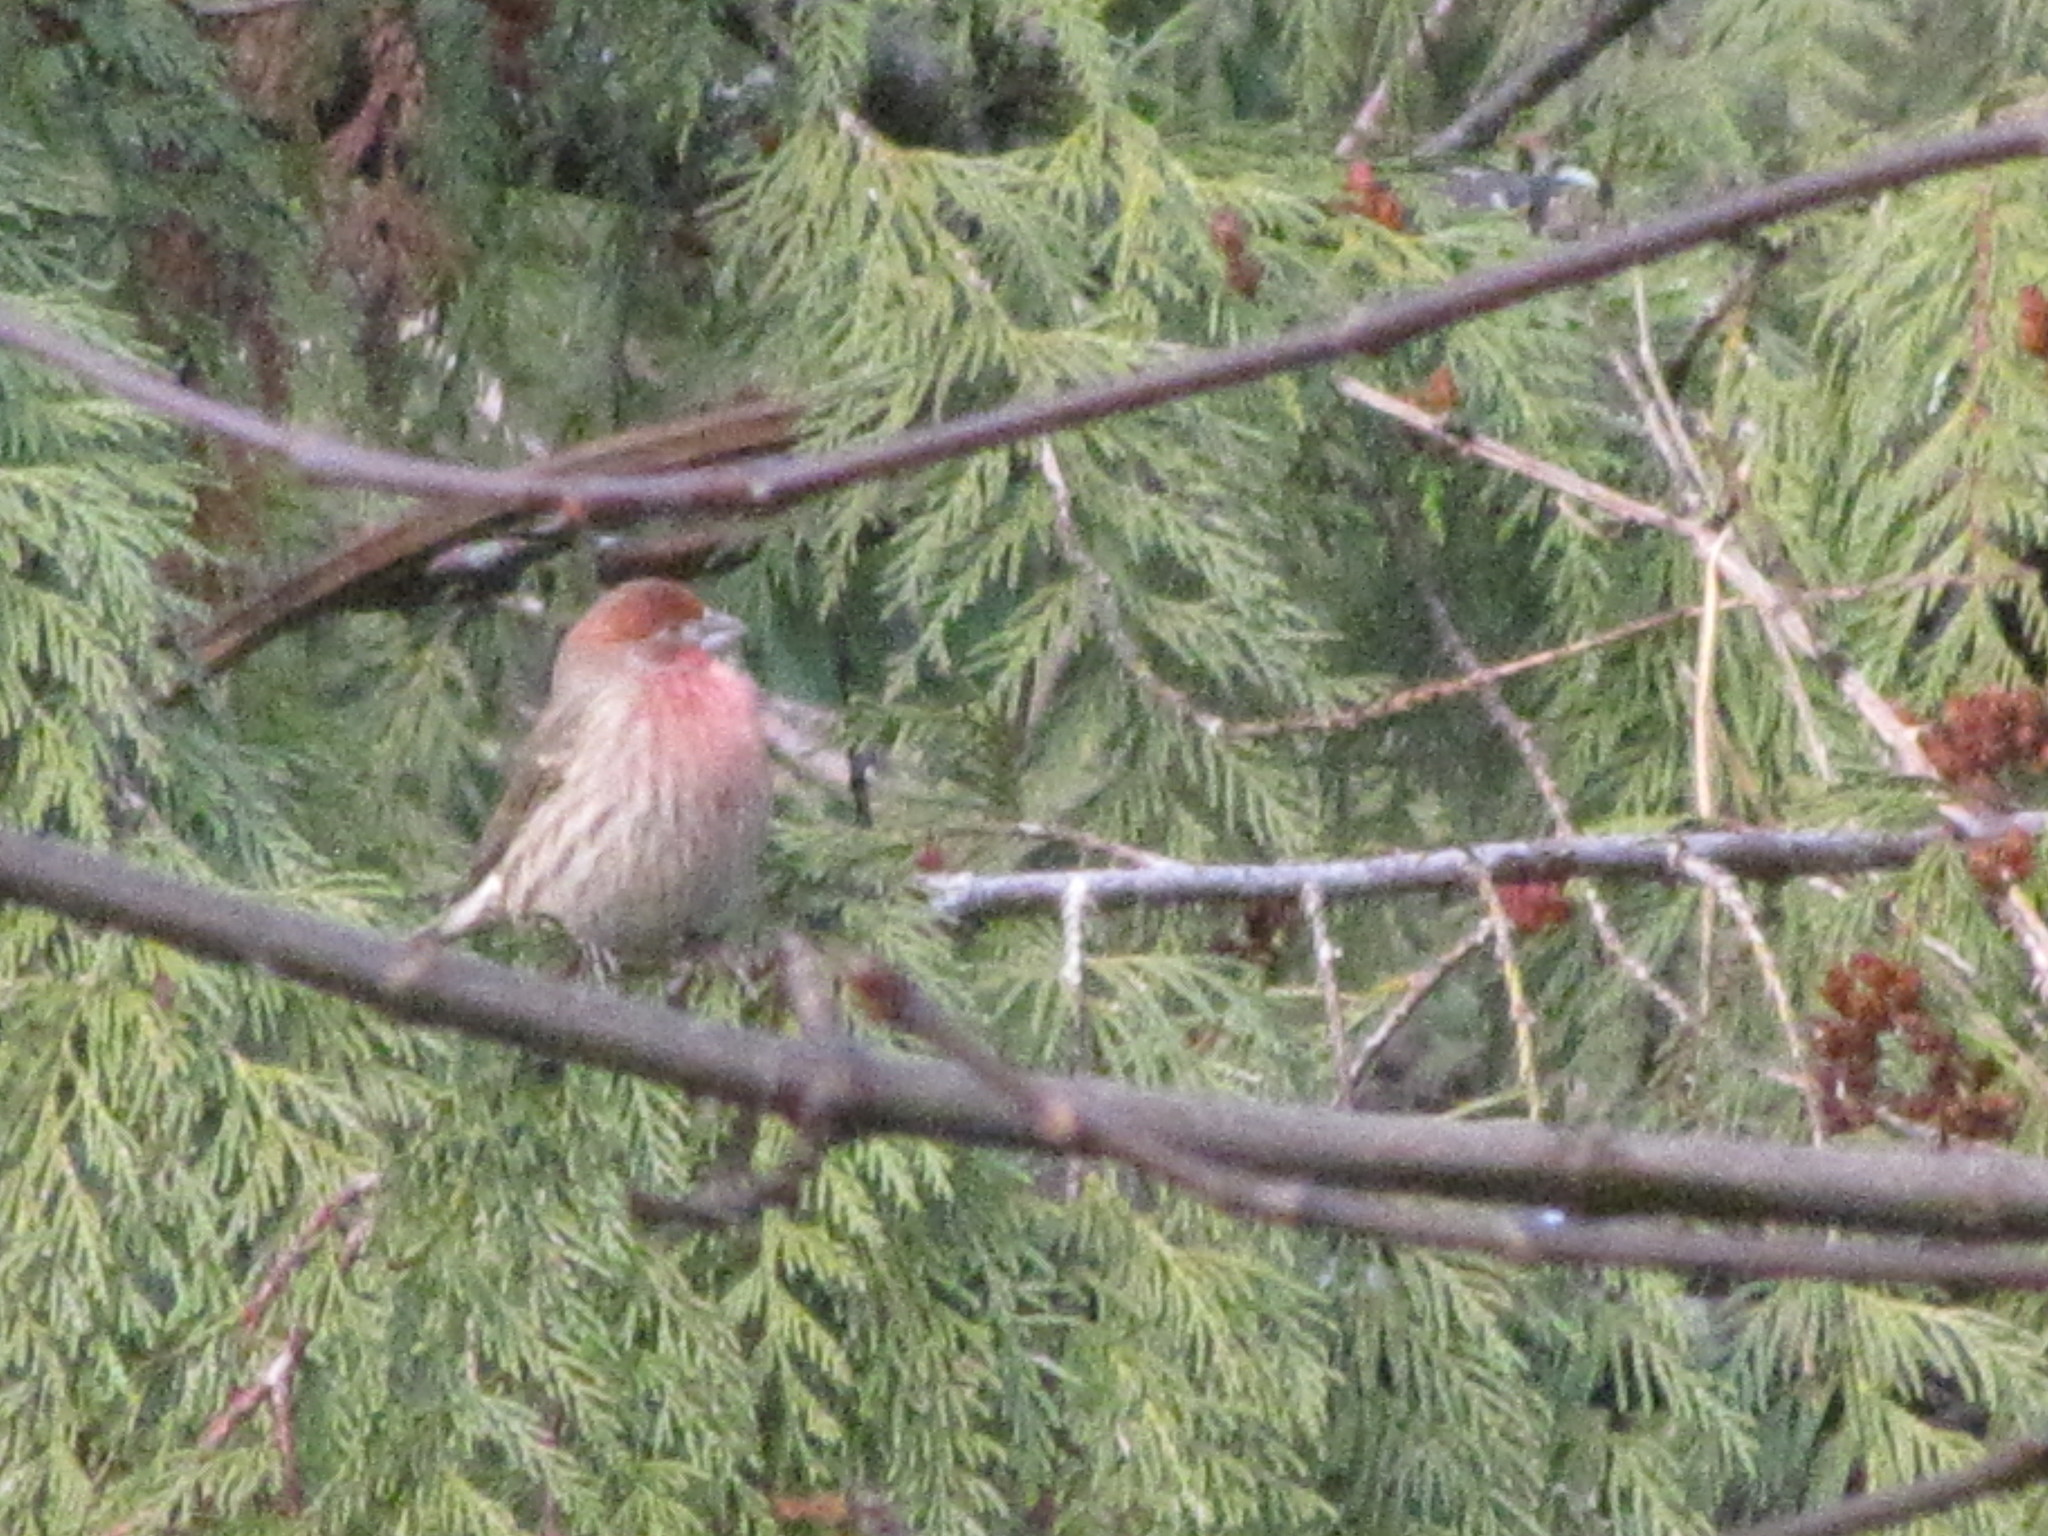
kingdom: Animalia
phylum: Chordata
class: Aves
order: Passeriformes
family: Fringillidae
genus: Haemorhous
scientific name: Haemorhous mexicanus
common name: House finch
